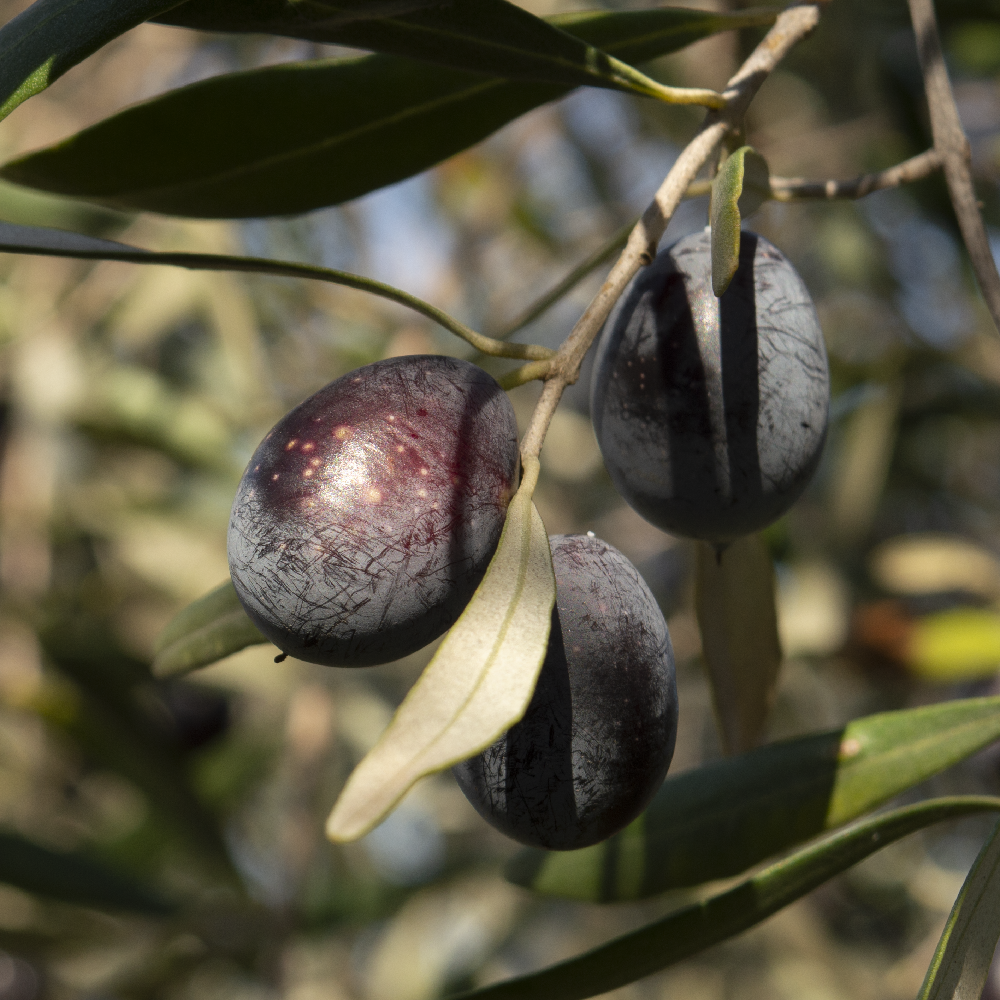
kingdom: Plantae
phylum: Tracheophyta
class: Magnoliopsida
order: Lamiales
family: Oleaceae
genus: Olea
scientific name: Olea europaea
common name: Olive
